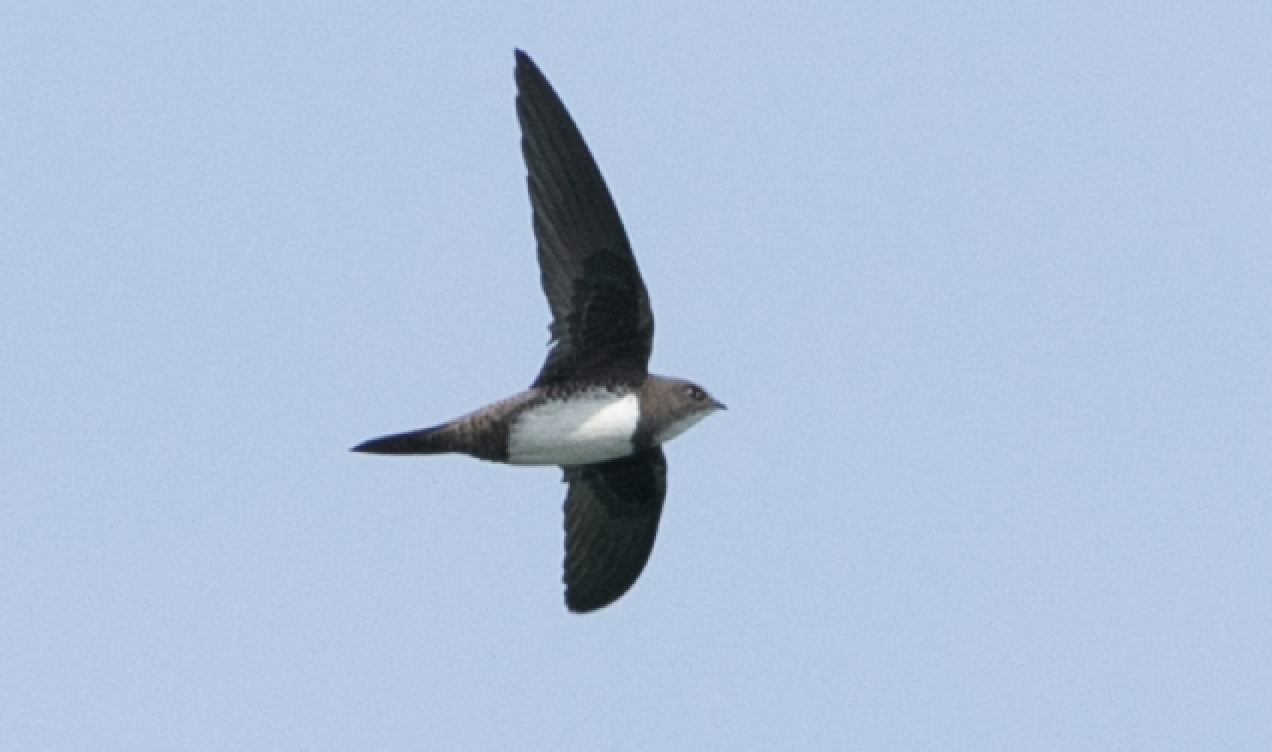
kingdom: Animalia
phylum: Chordata
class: Aves
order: Apodiformes
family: Apodidae
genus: Tachymarptis
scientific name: Tachymarptis melba
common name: Alpine swift
